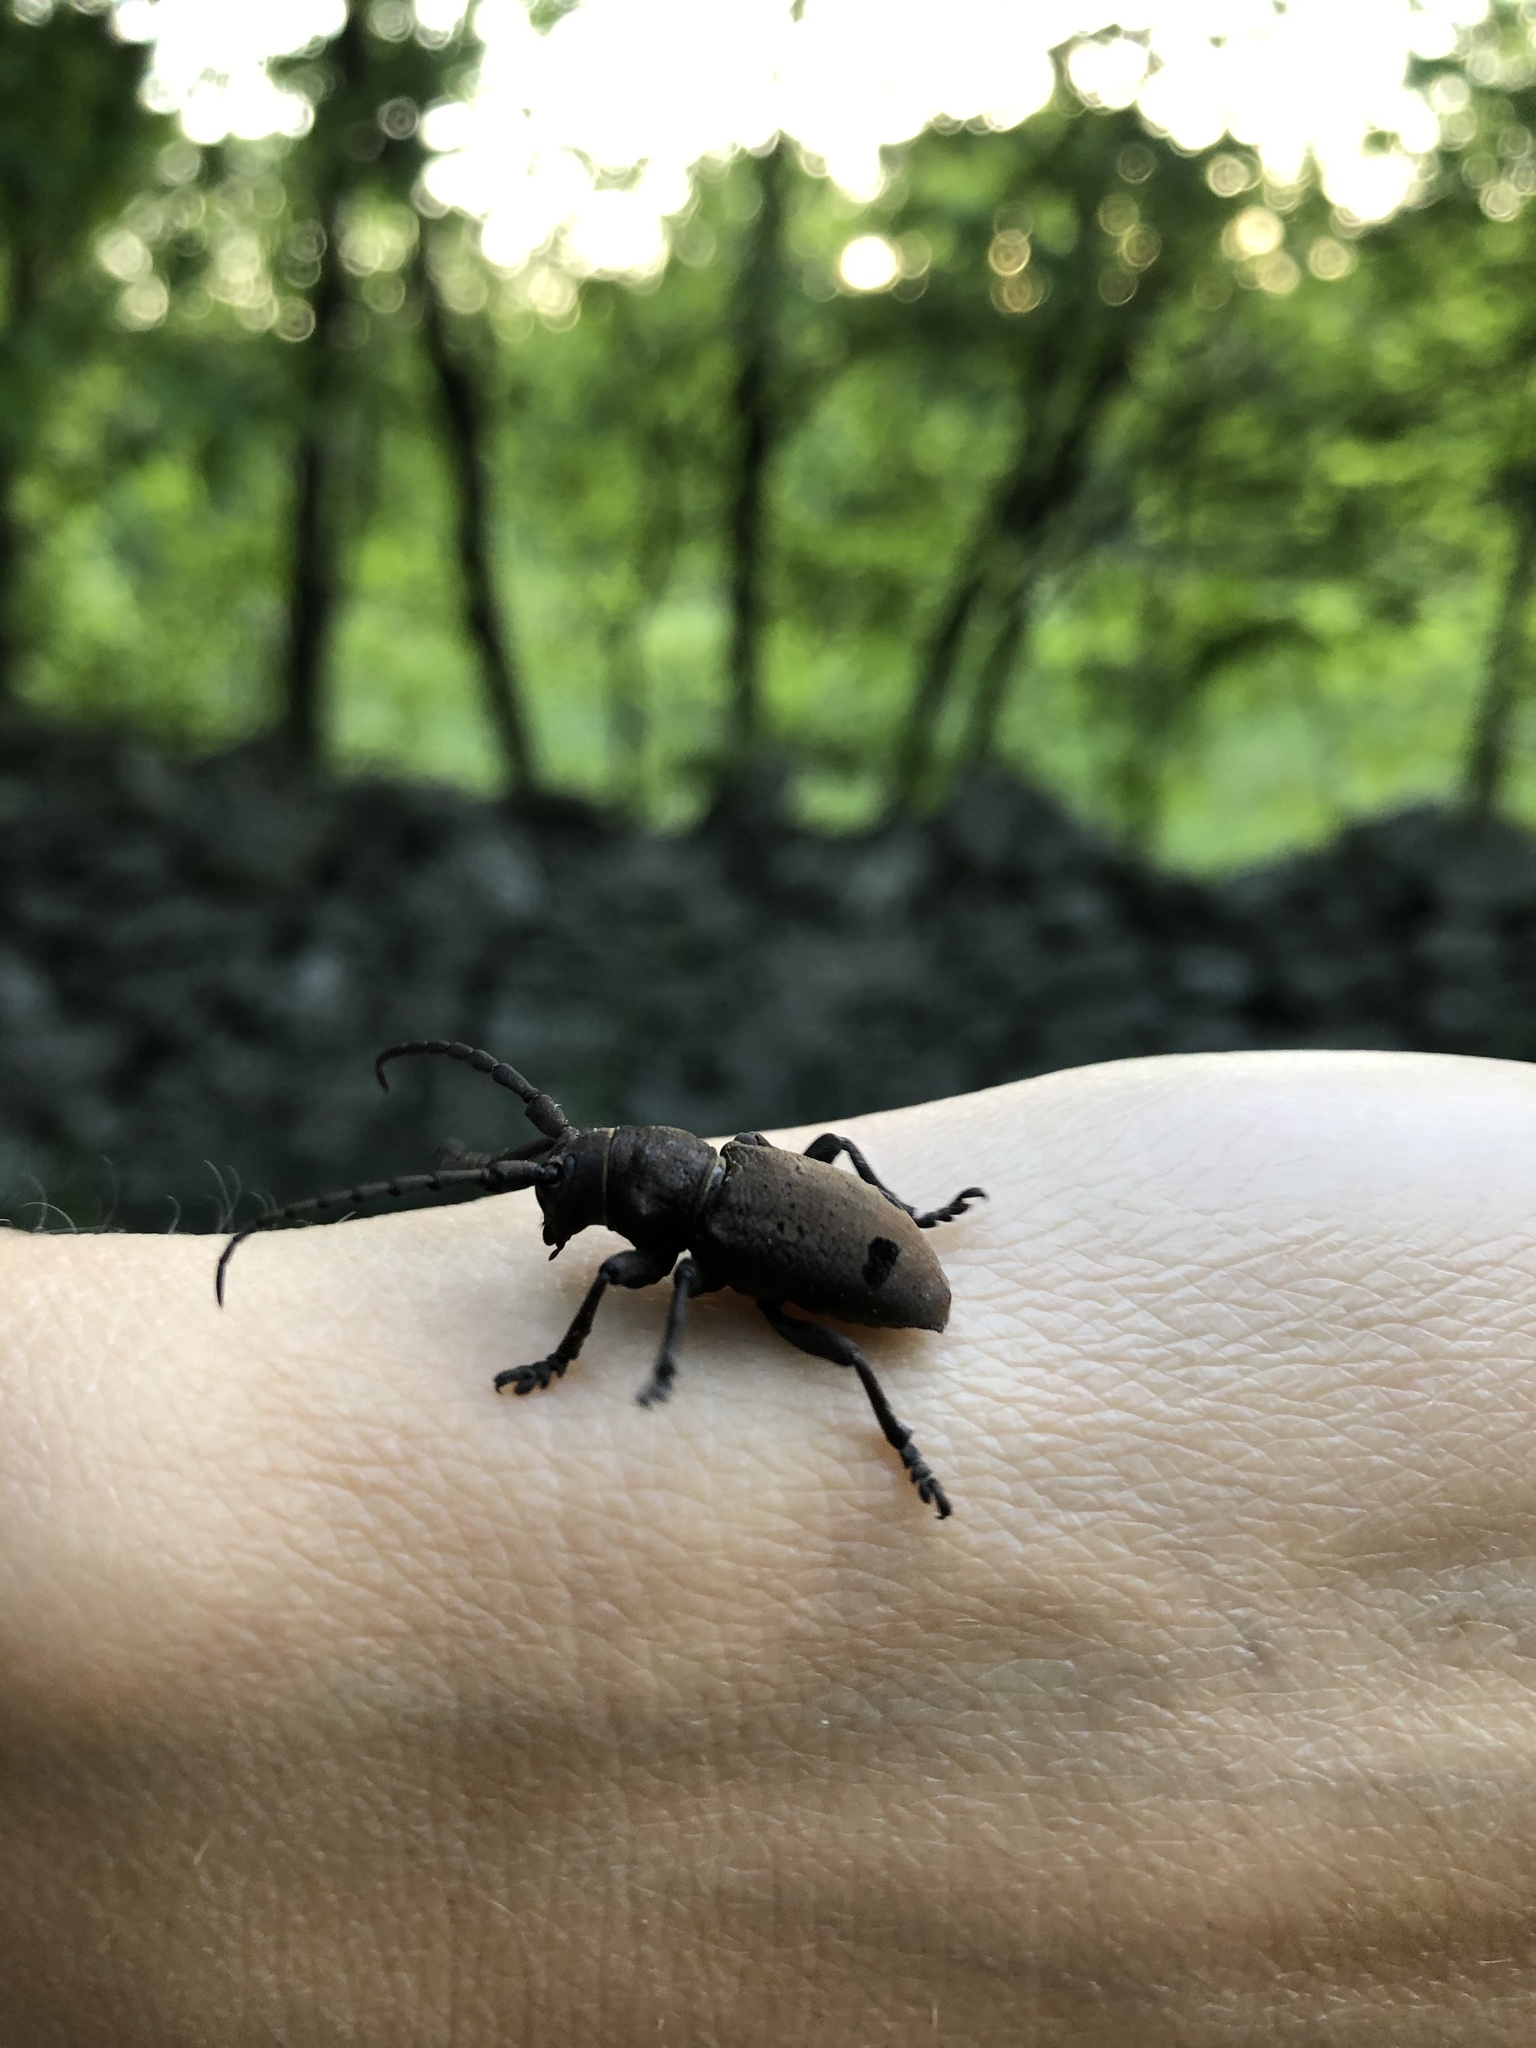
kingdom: Animalia
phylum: Arthropoda
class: Insecta
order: Coleoptera
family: Cerambycidae
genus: Herophila
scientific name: Herophila tristis
